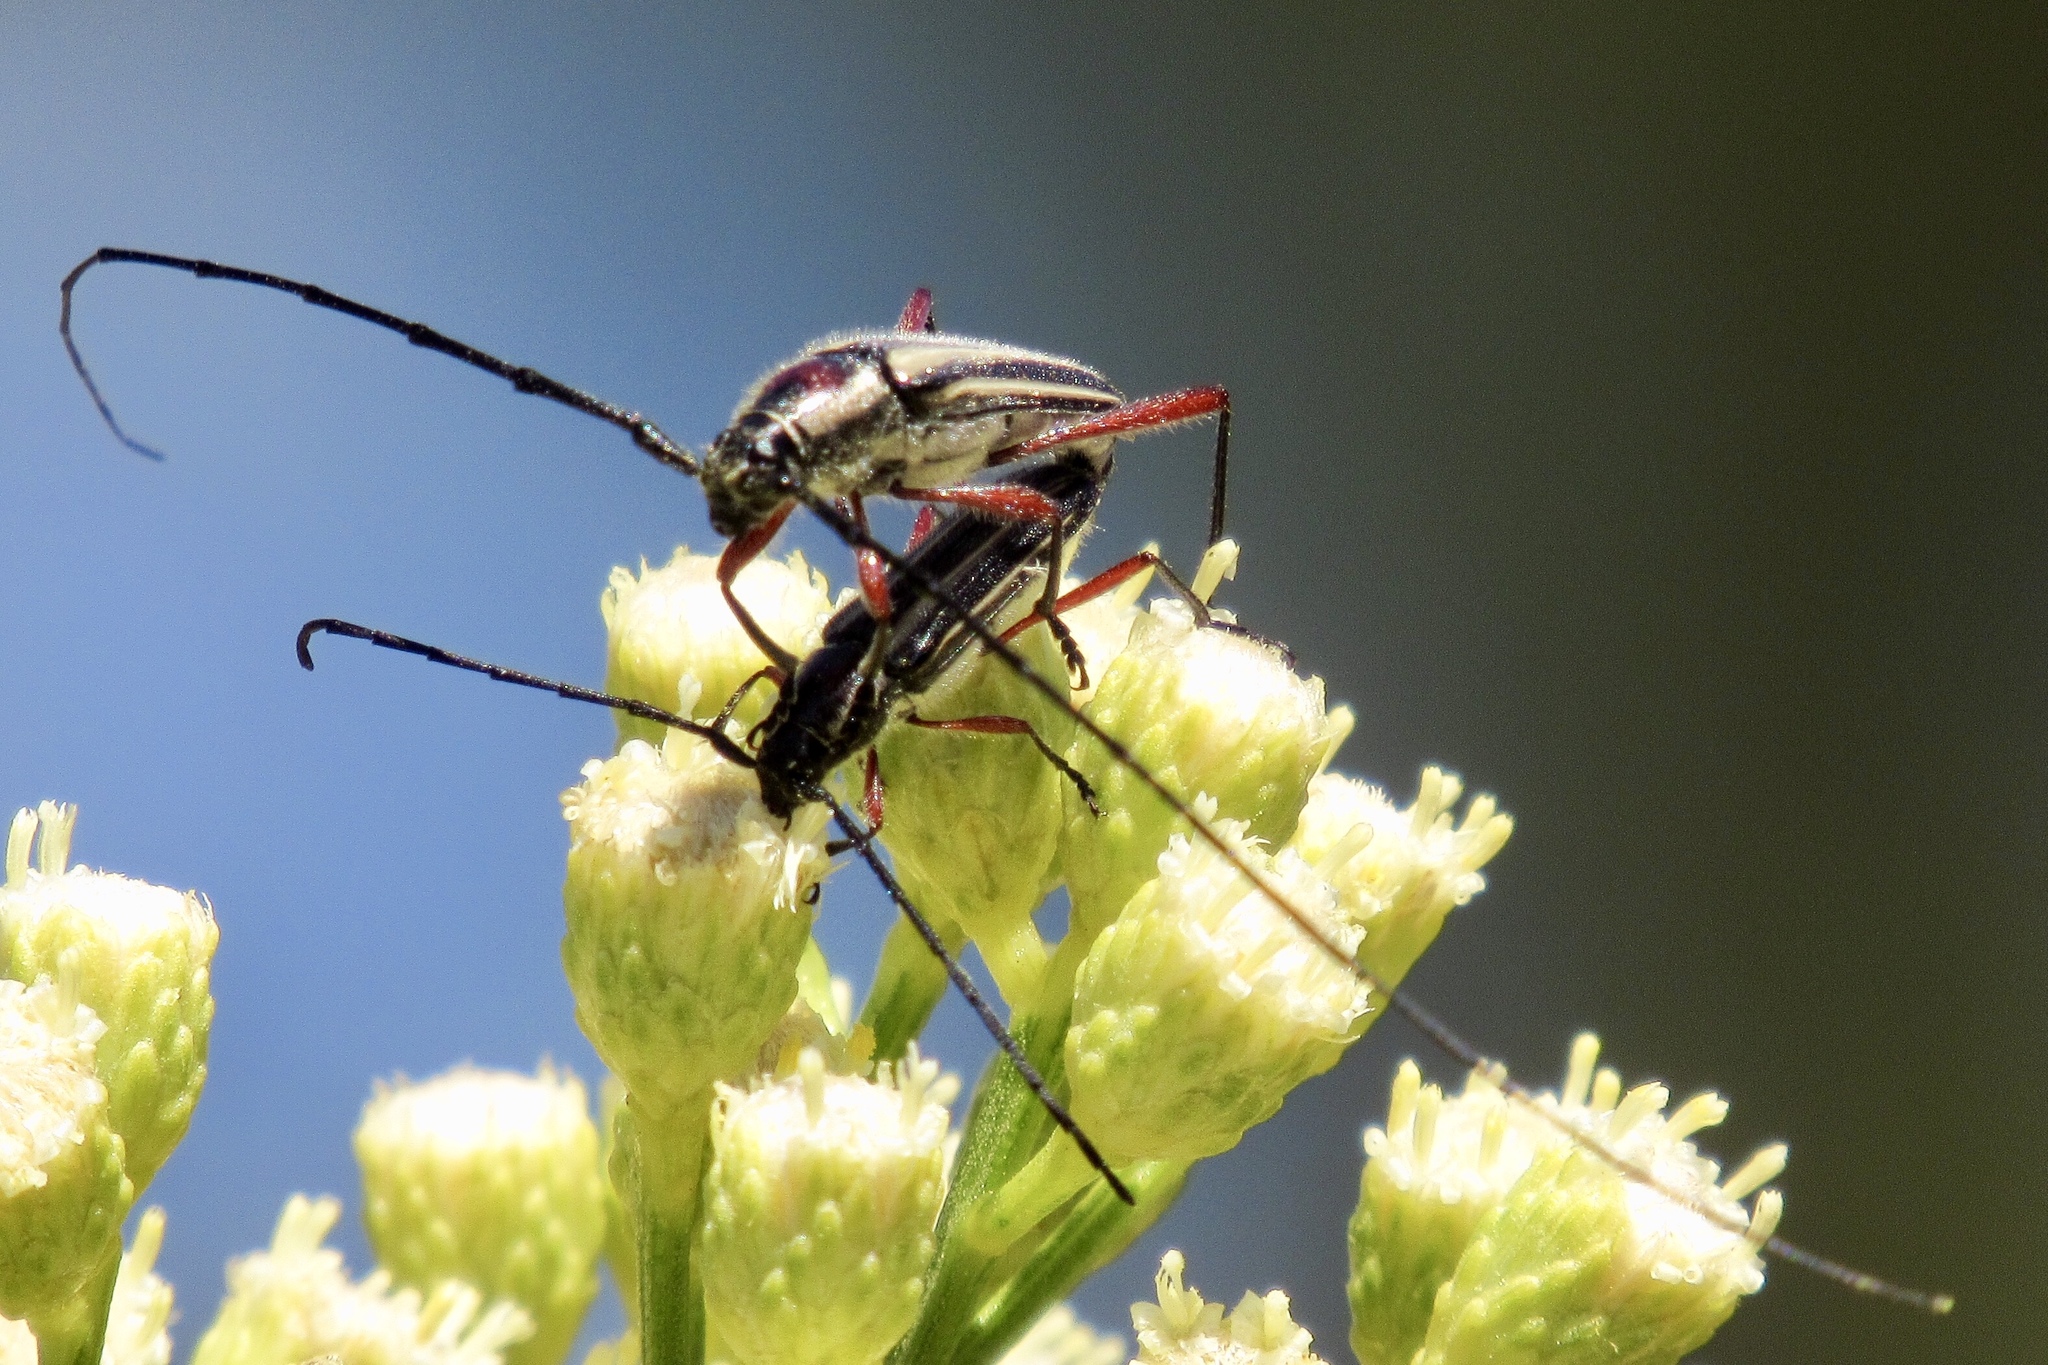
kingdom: Animalia
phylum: Arthropoda
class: Insecta
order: Coleoptera
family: Cerambycidae
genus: Sphaenothecus
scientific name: Sphaenothecus bilineatus
